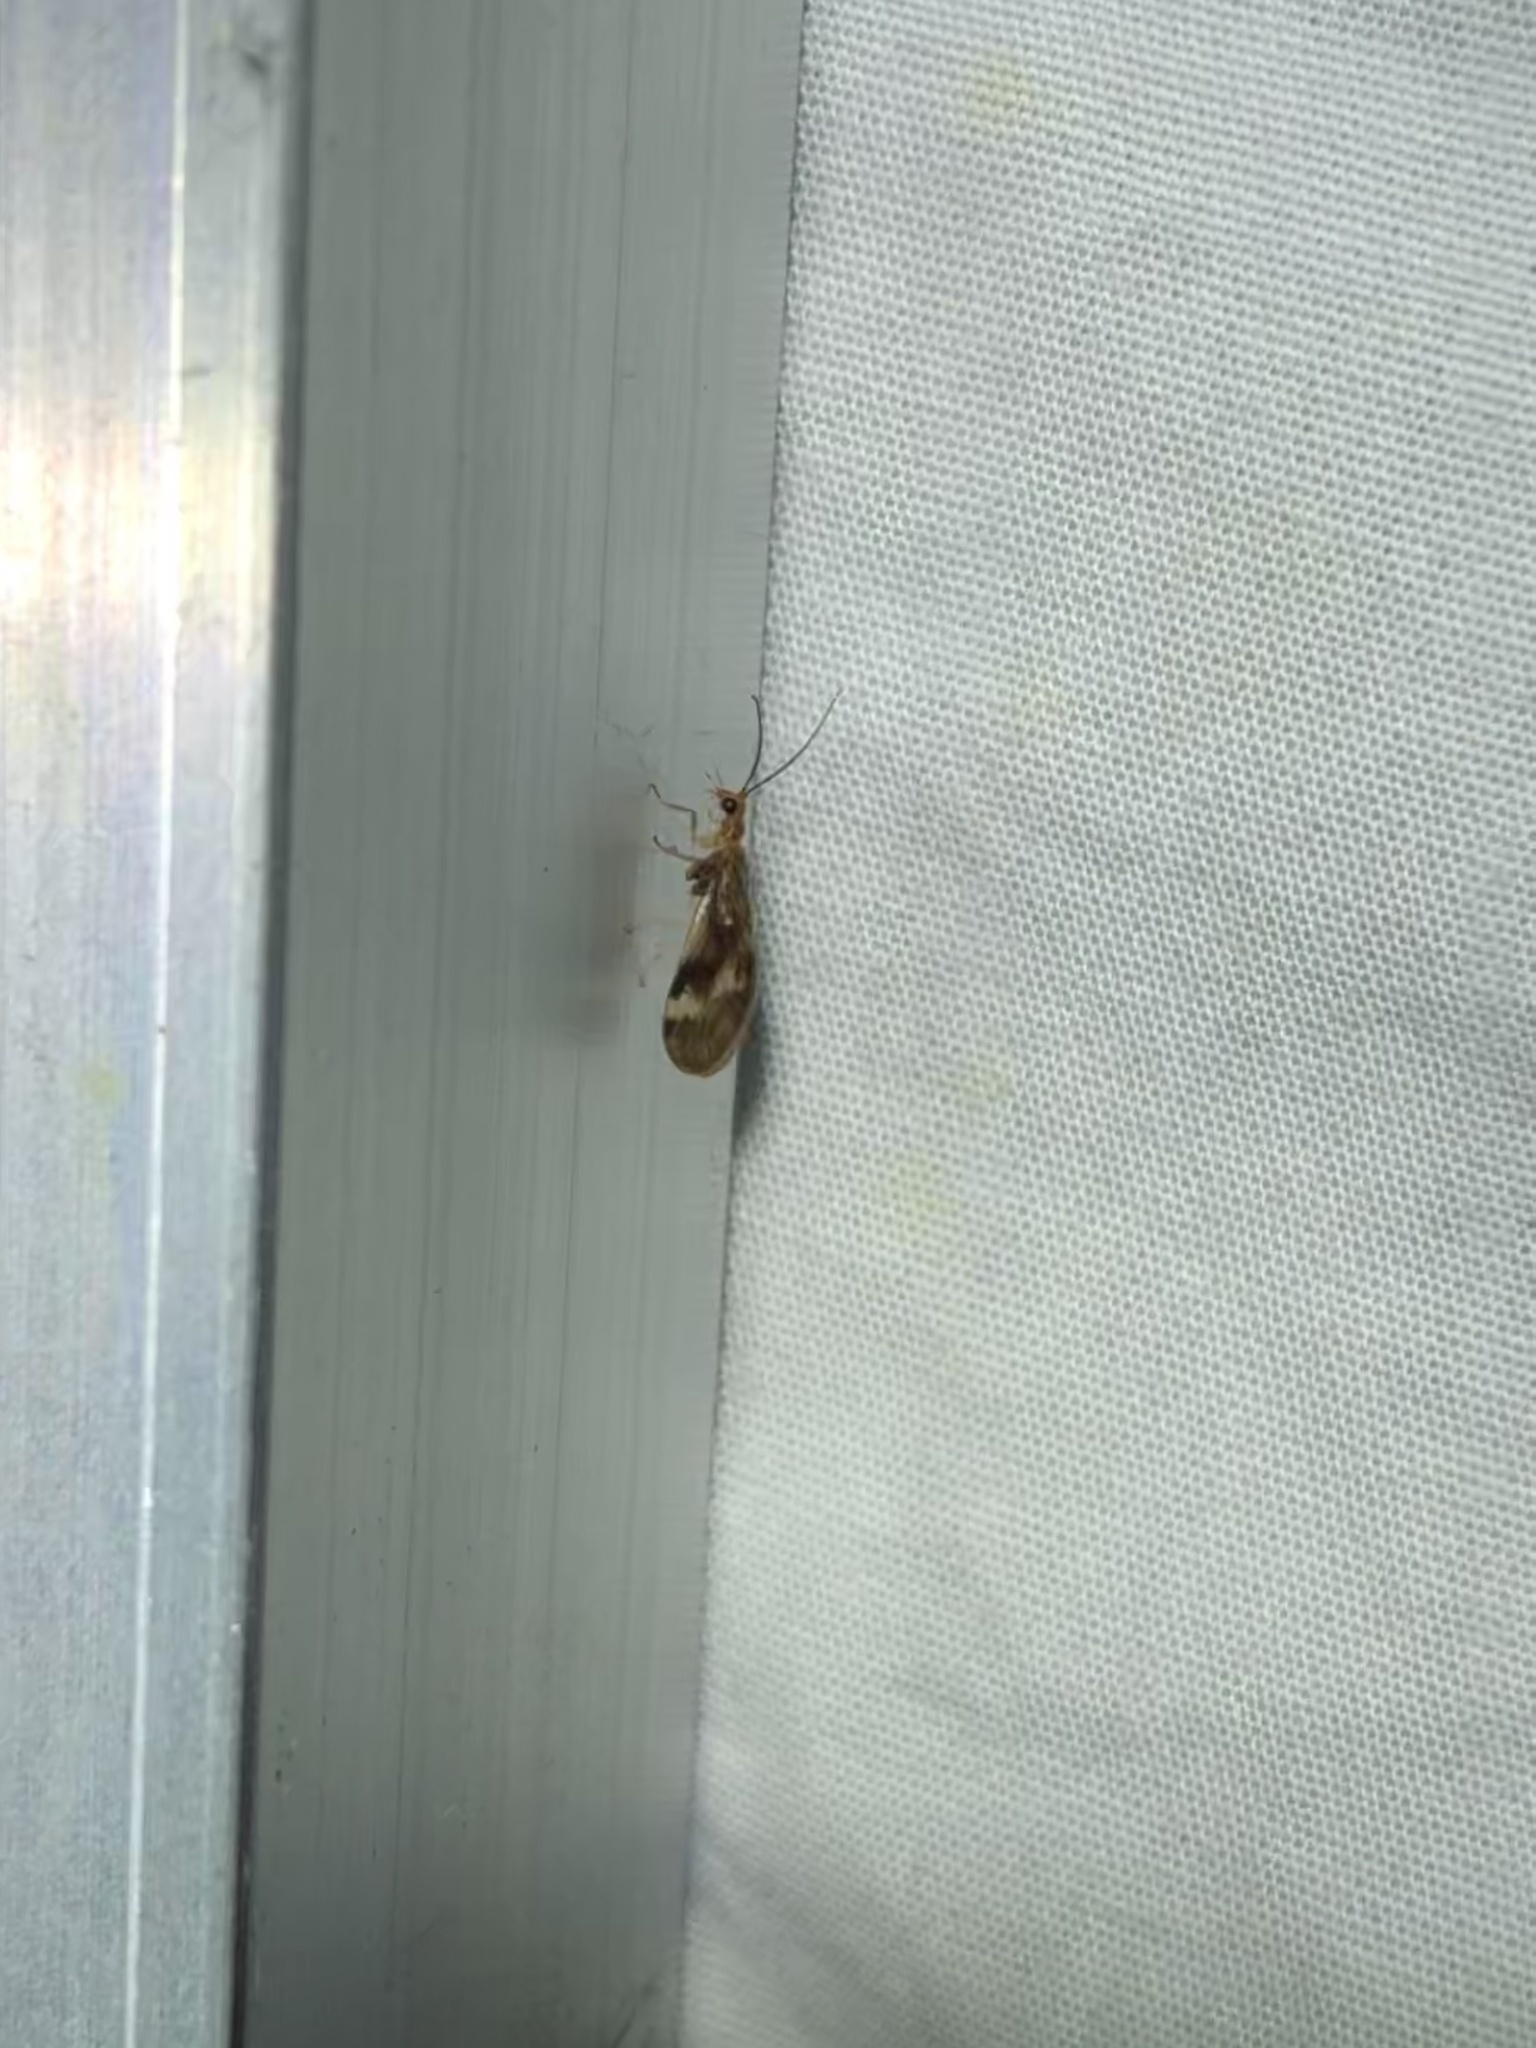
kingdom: Animalia
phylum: Arthropoda
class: Insecta
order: Neuroptera
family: Sisyridae
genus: Climacia
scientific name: Climacia californica
